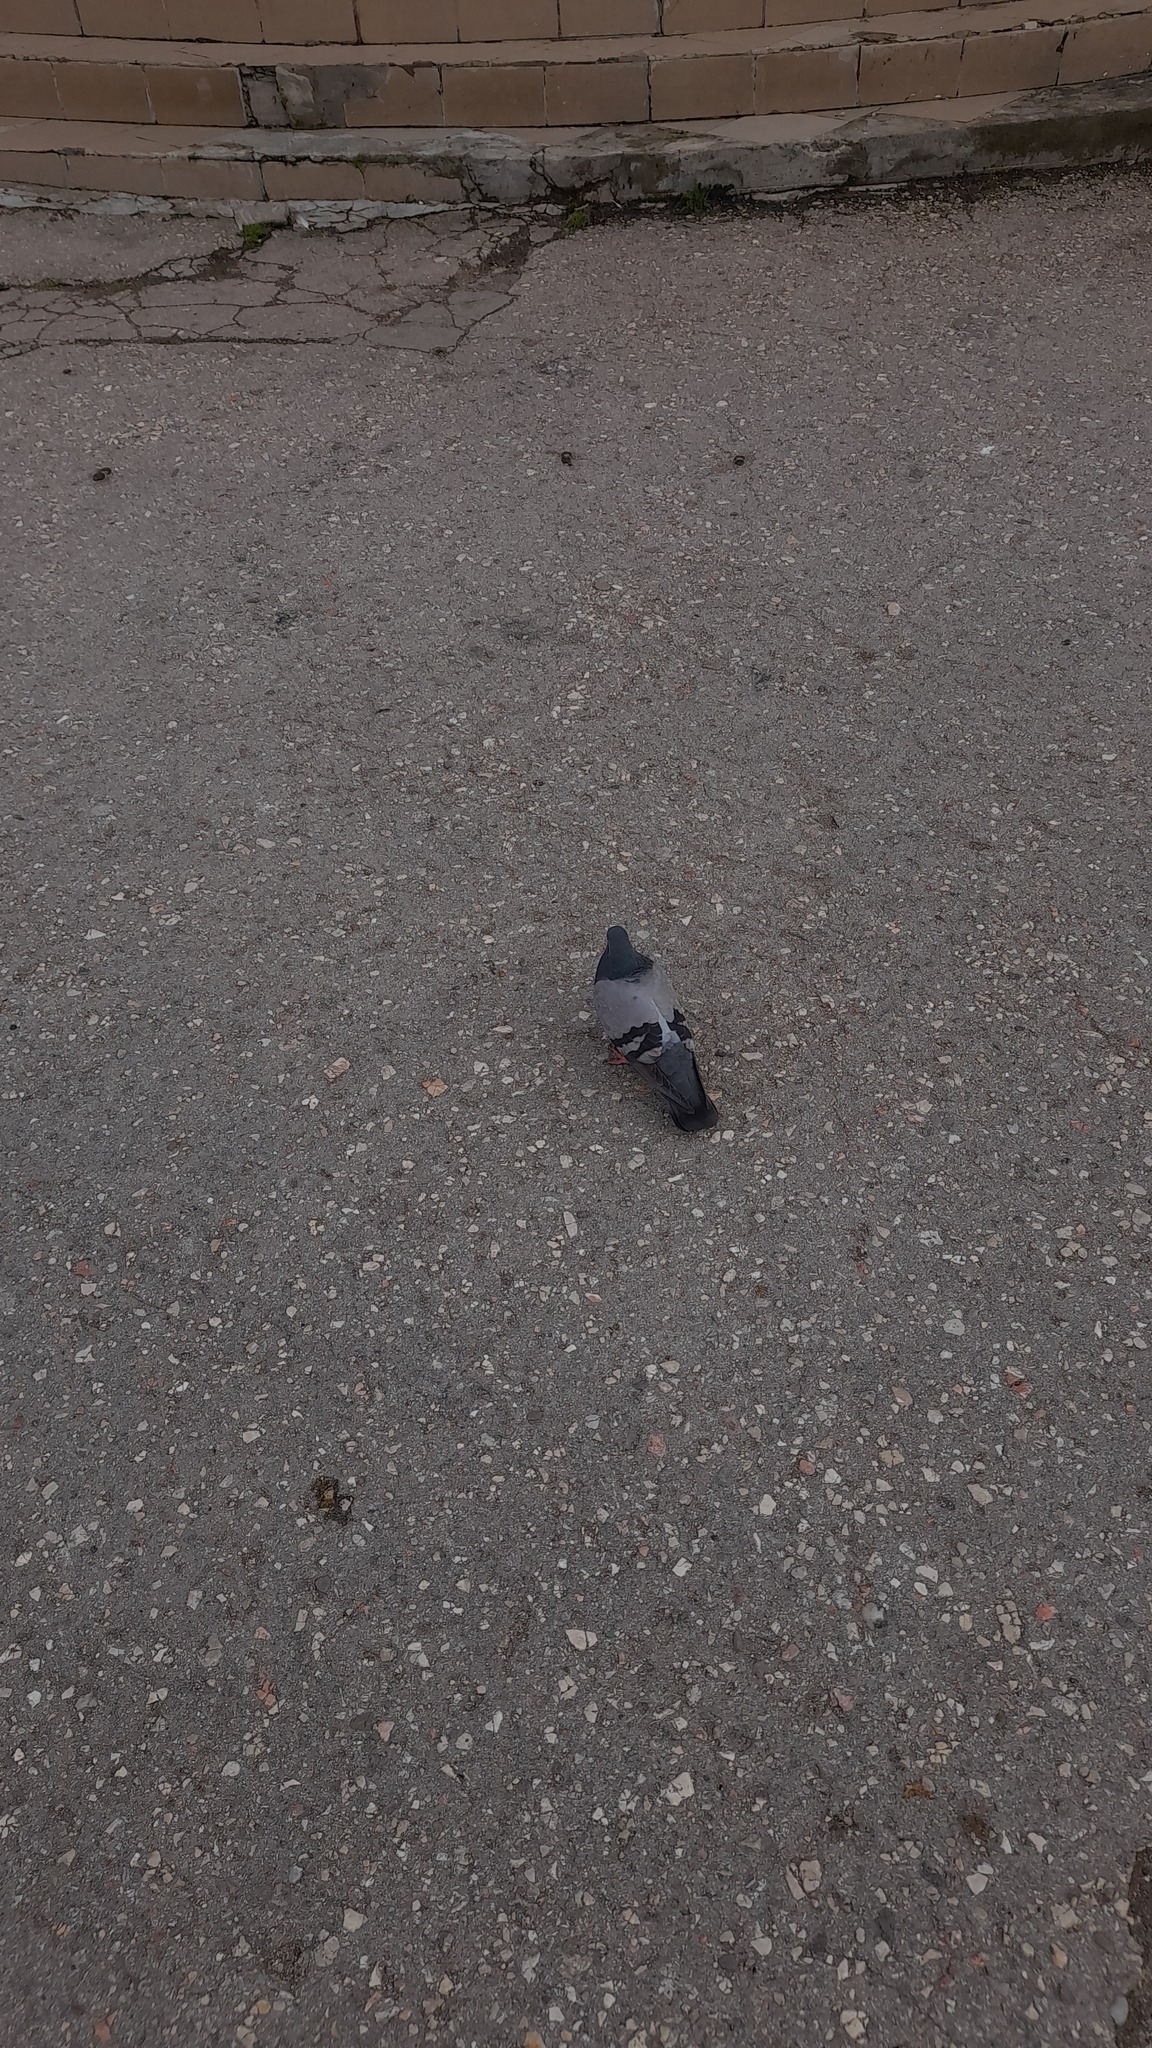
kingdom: Animalia
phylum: Chordata
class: Aves
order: Columbiformes
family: Columbidae
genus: Columba
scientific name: Columba livia
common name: Rock pigeon
